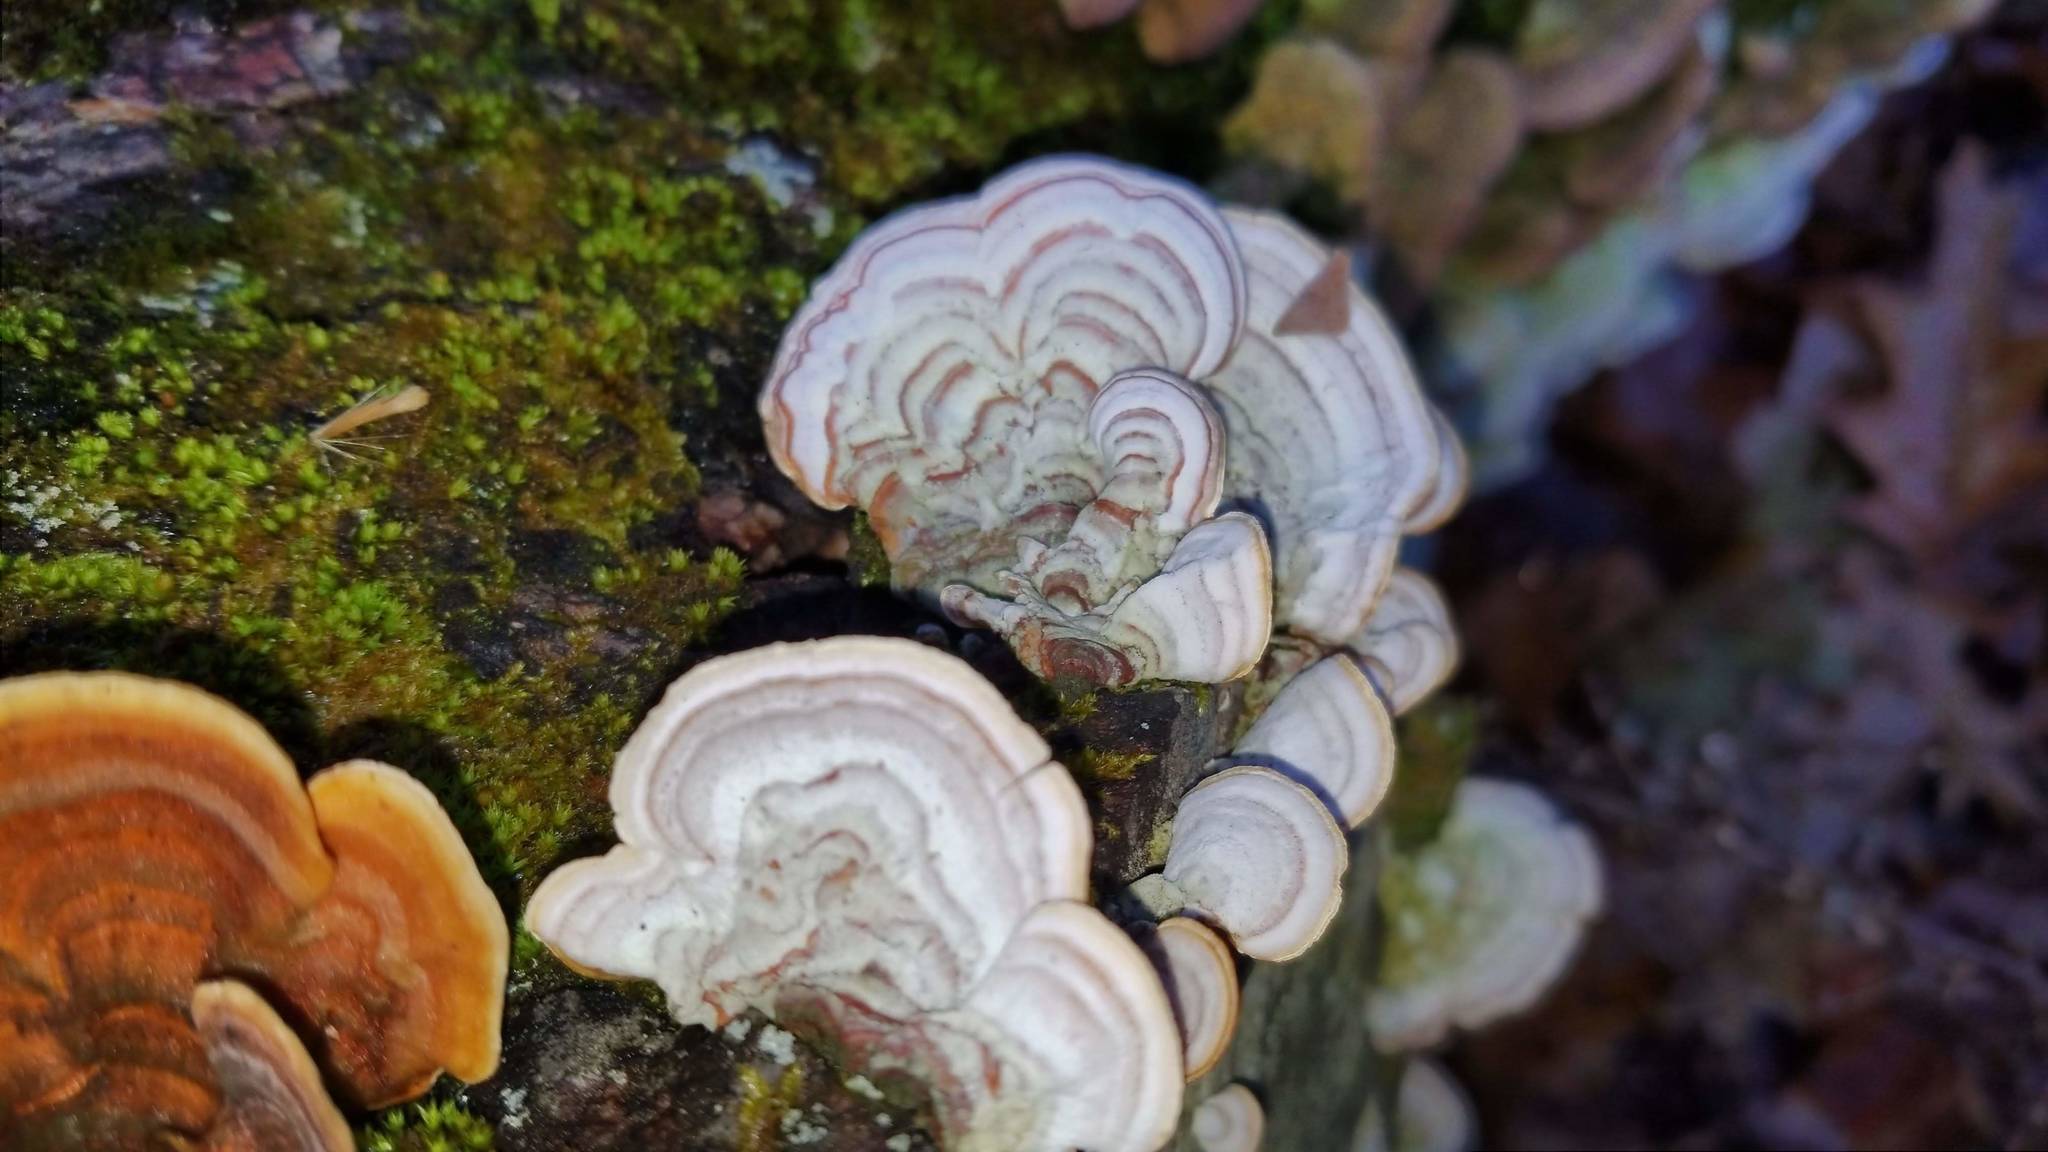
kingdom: Fungi
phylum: Basidiomycota
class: Agaricomycetes
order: Russulales
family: Stereaceae
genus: Stereum
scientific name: Stereum ostrea
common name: False turkeytail
